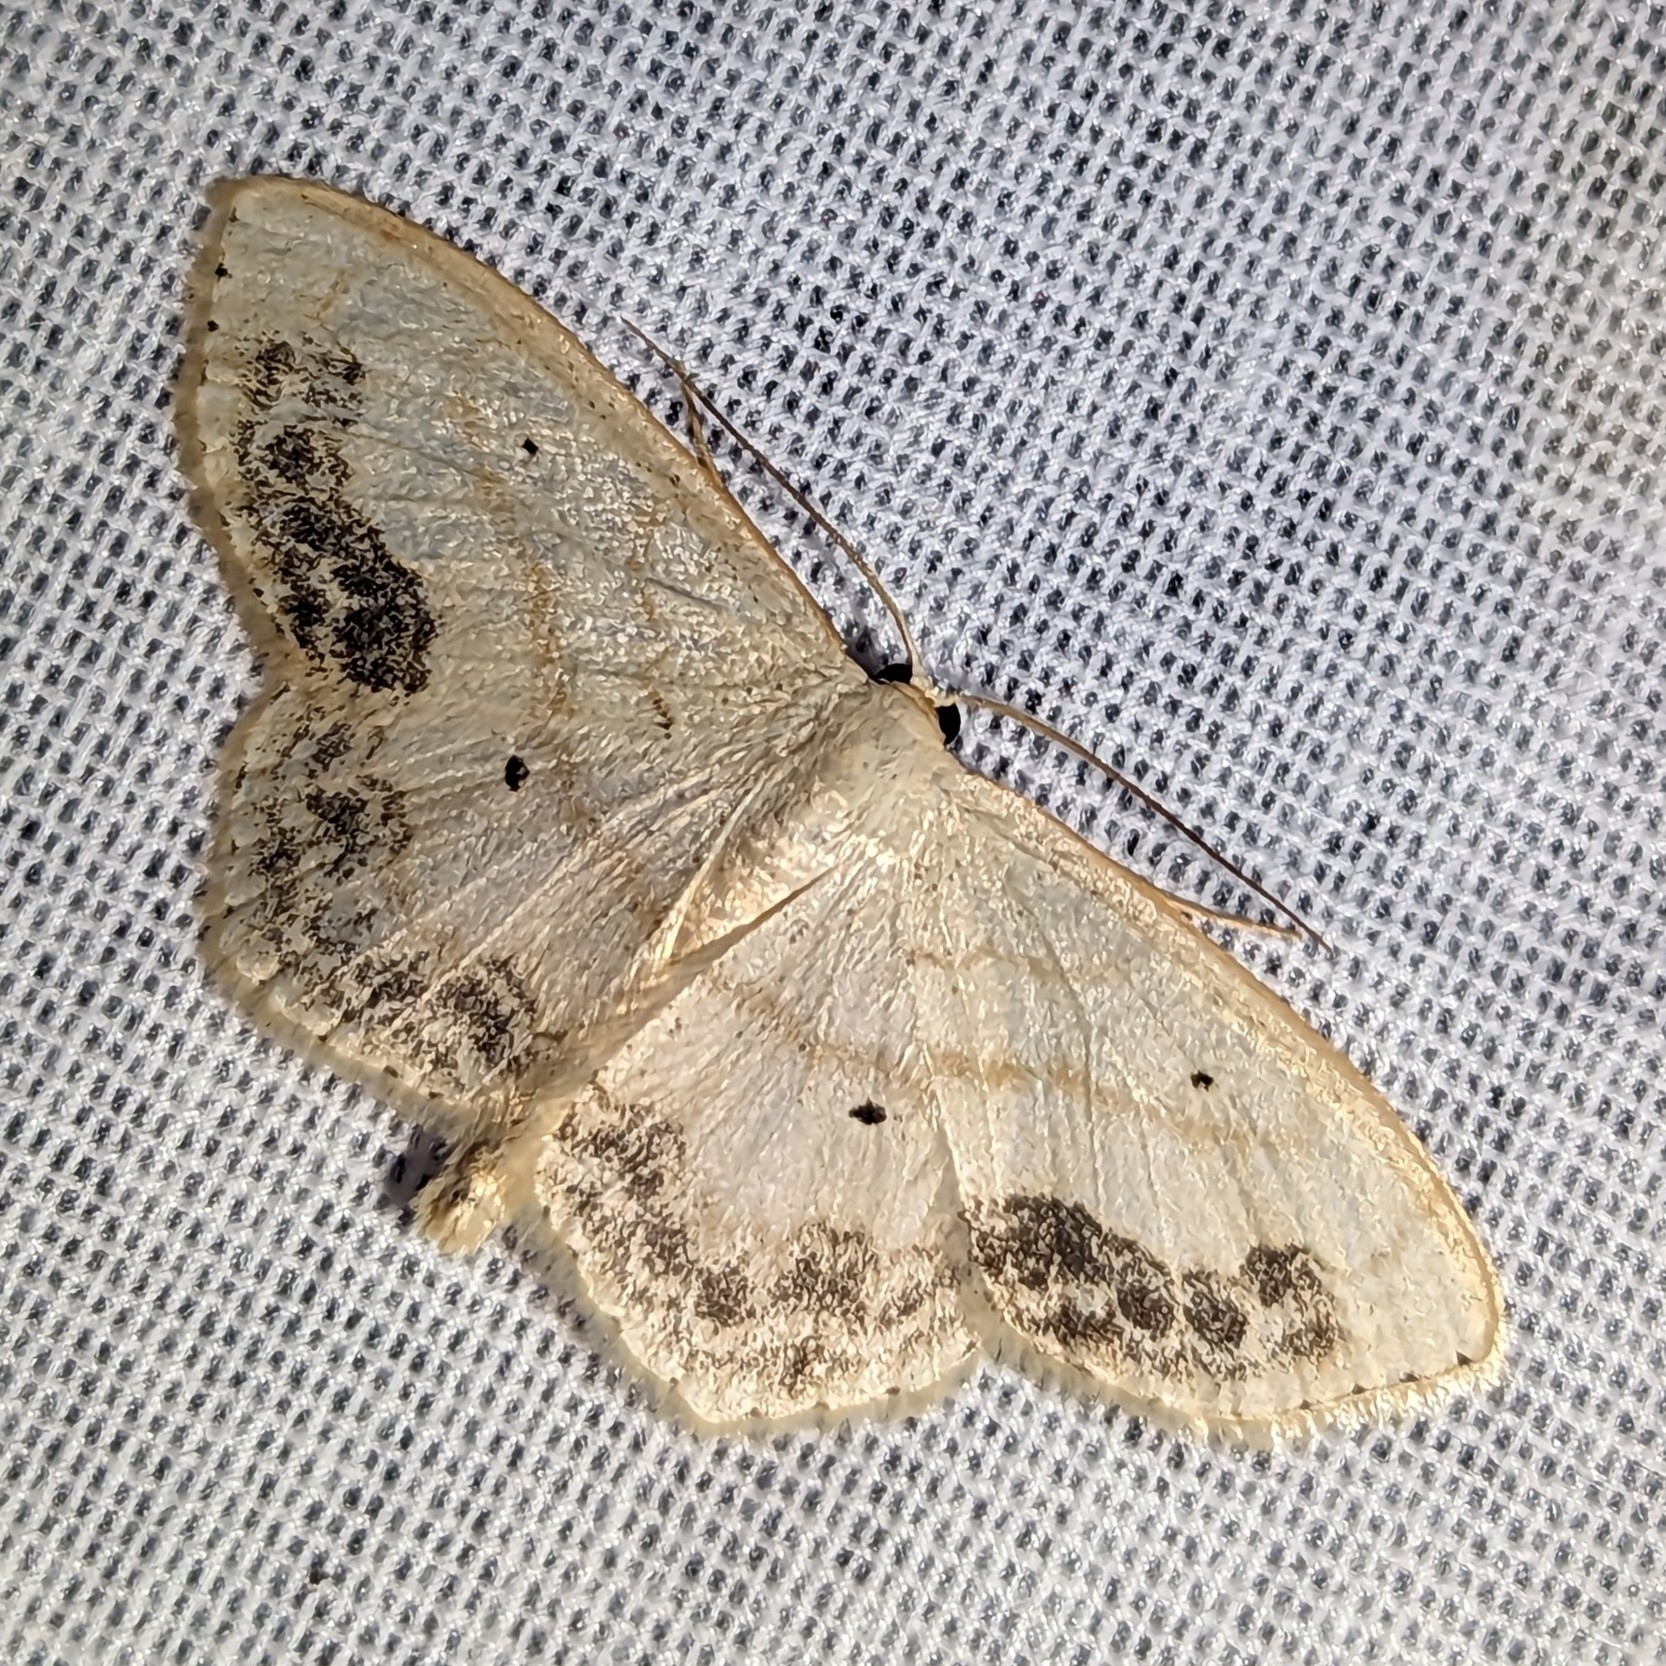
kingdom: Animalia
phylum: Arthropoda
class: Insecta
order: Lepidoptera
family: Geometridae
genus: Scopula
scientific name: Scopula limboundata
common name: Large lace border
